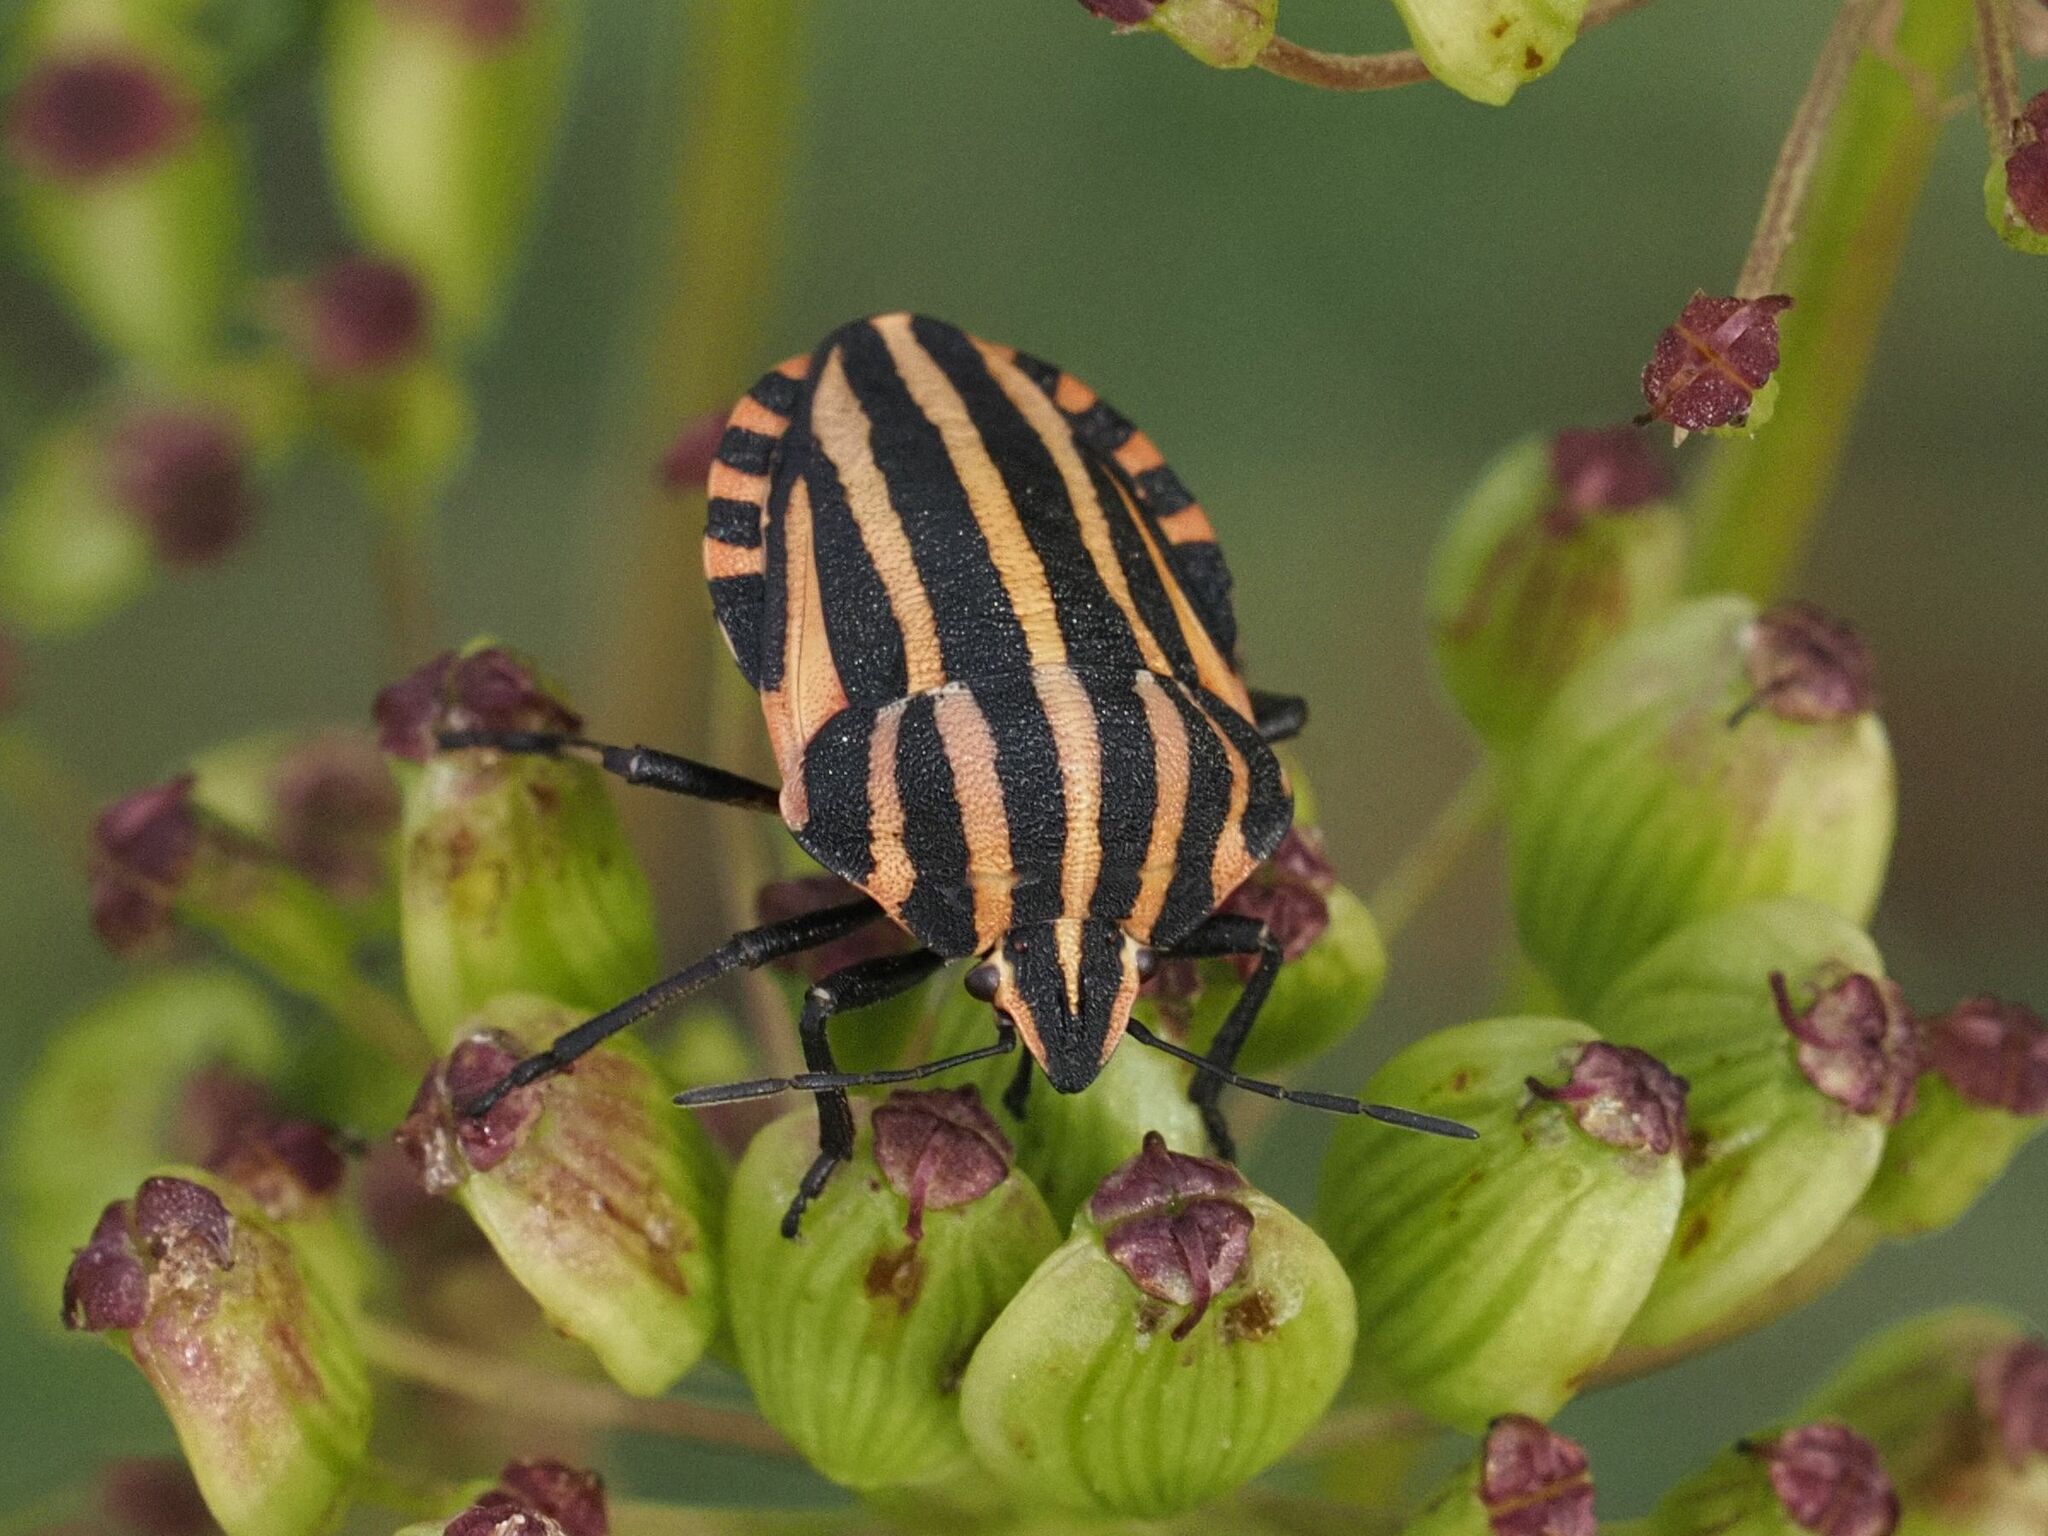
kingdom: Animalia
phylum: Arthropoda
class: Insecta
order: Hemiptera
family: Pentatomidae
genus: Graphosoma
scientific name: Graphosoma italicum
